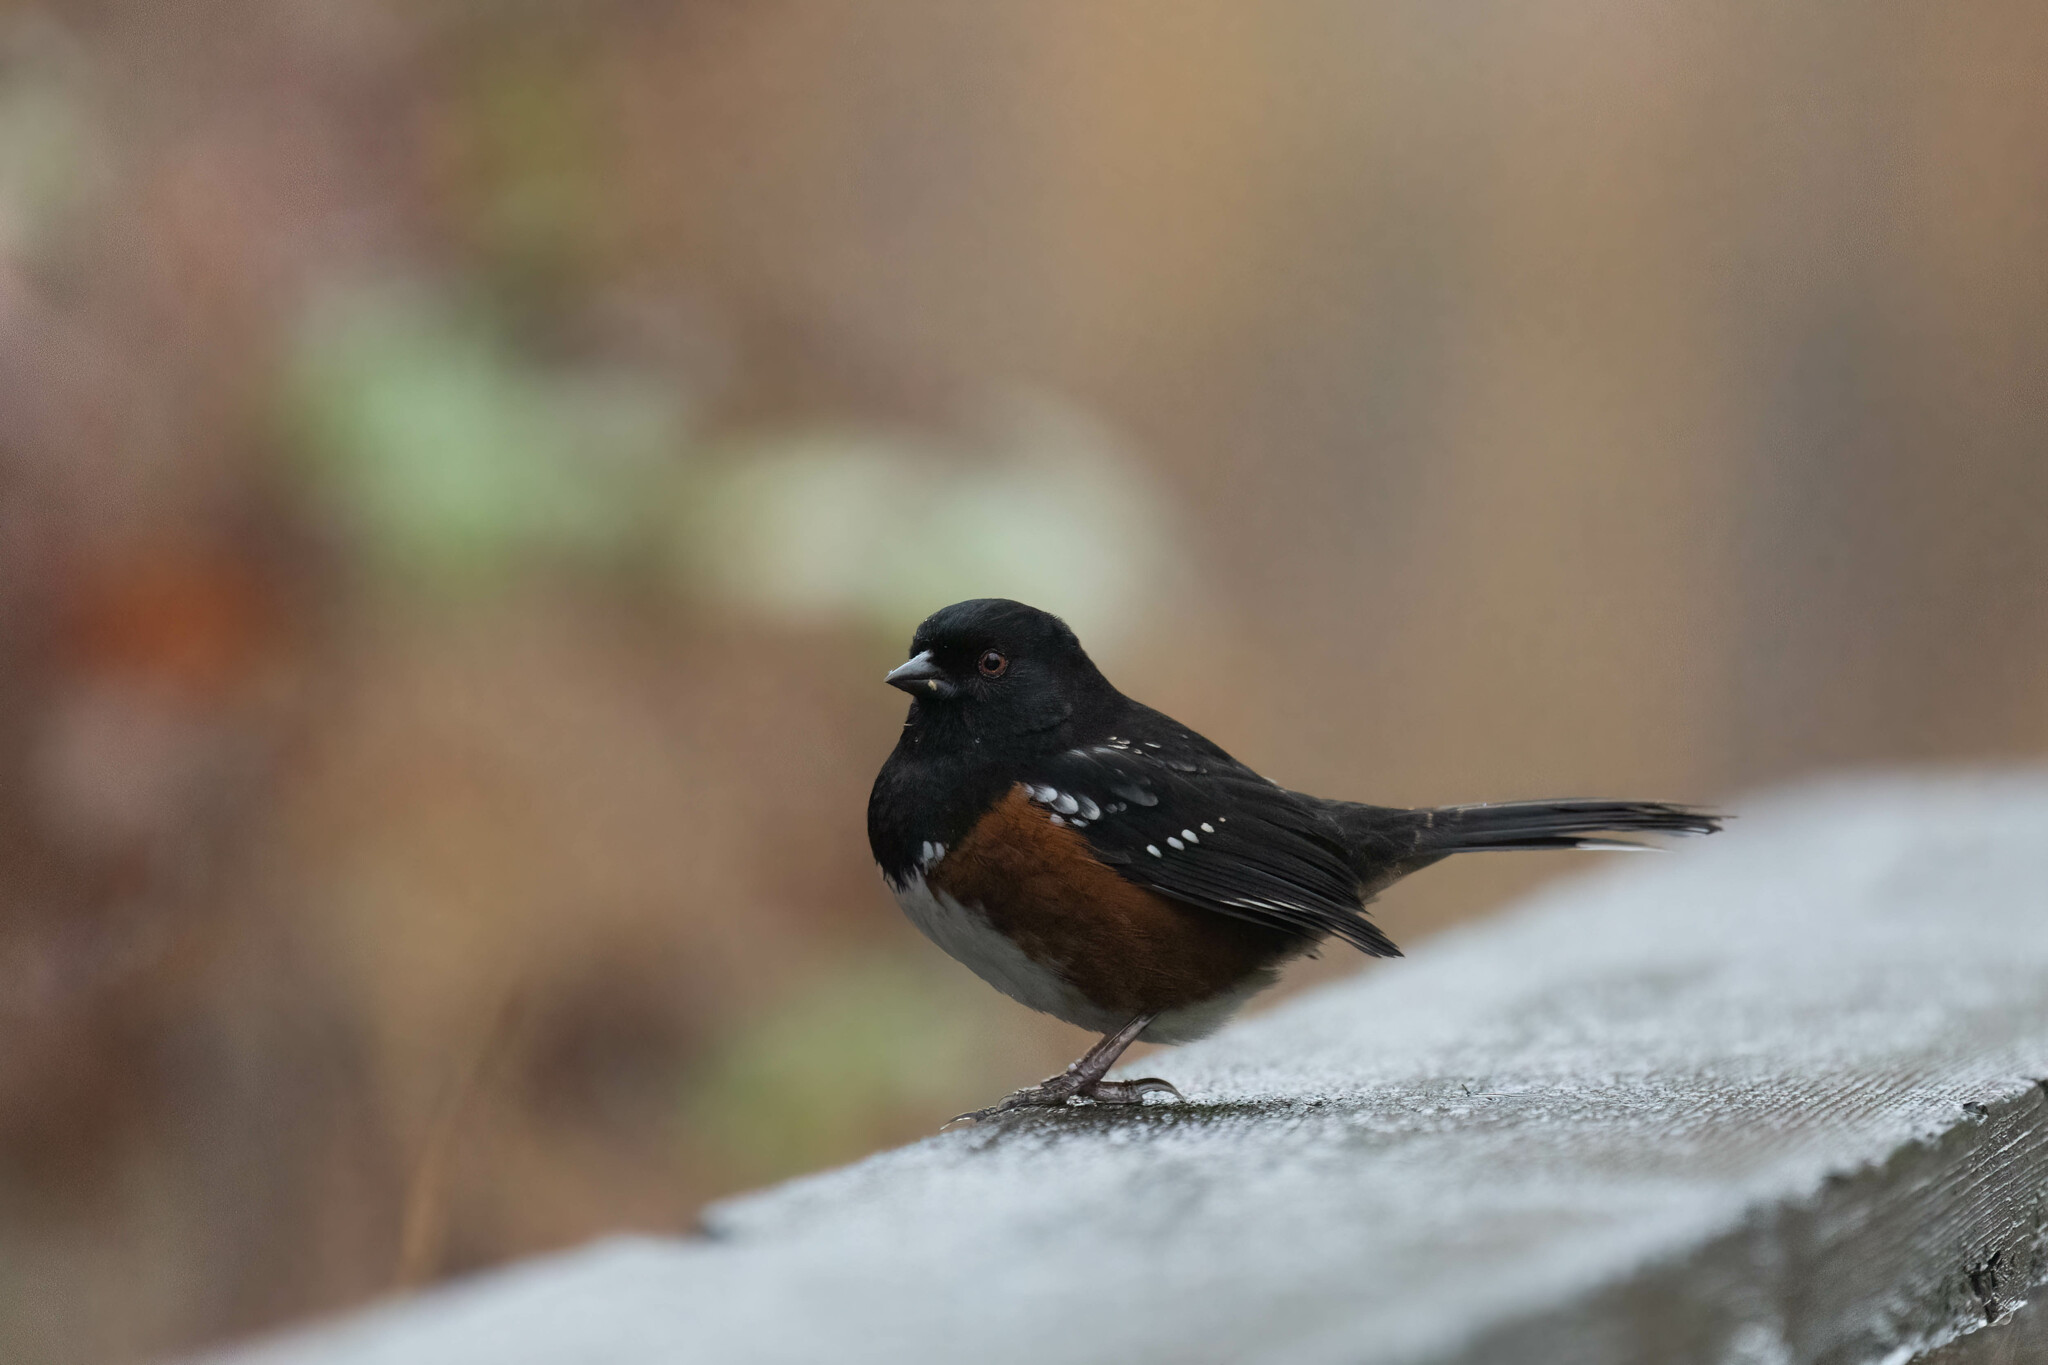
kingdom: Animalia
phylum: Chordata
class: Aves
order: Passeriformes
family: Passerellidae
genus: Pipilo
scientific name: Pipilo maculatus
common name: Spotted towhee
